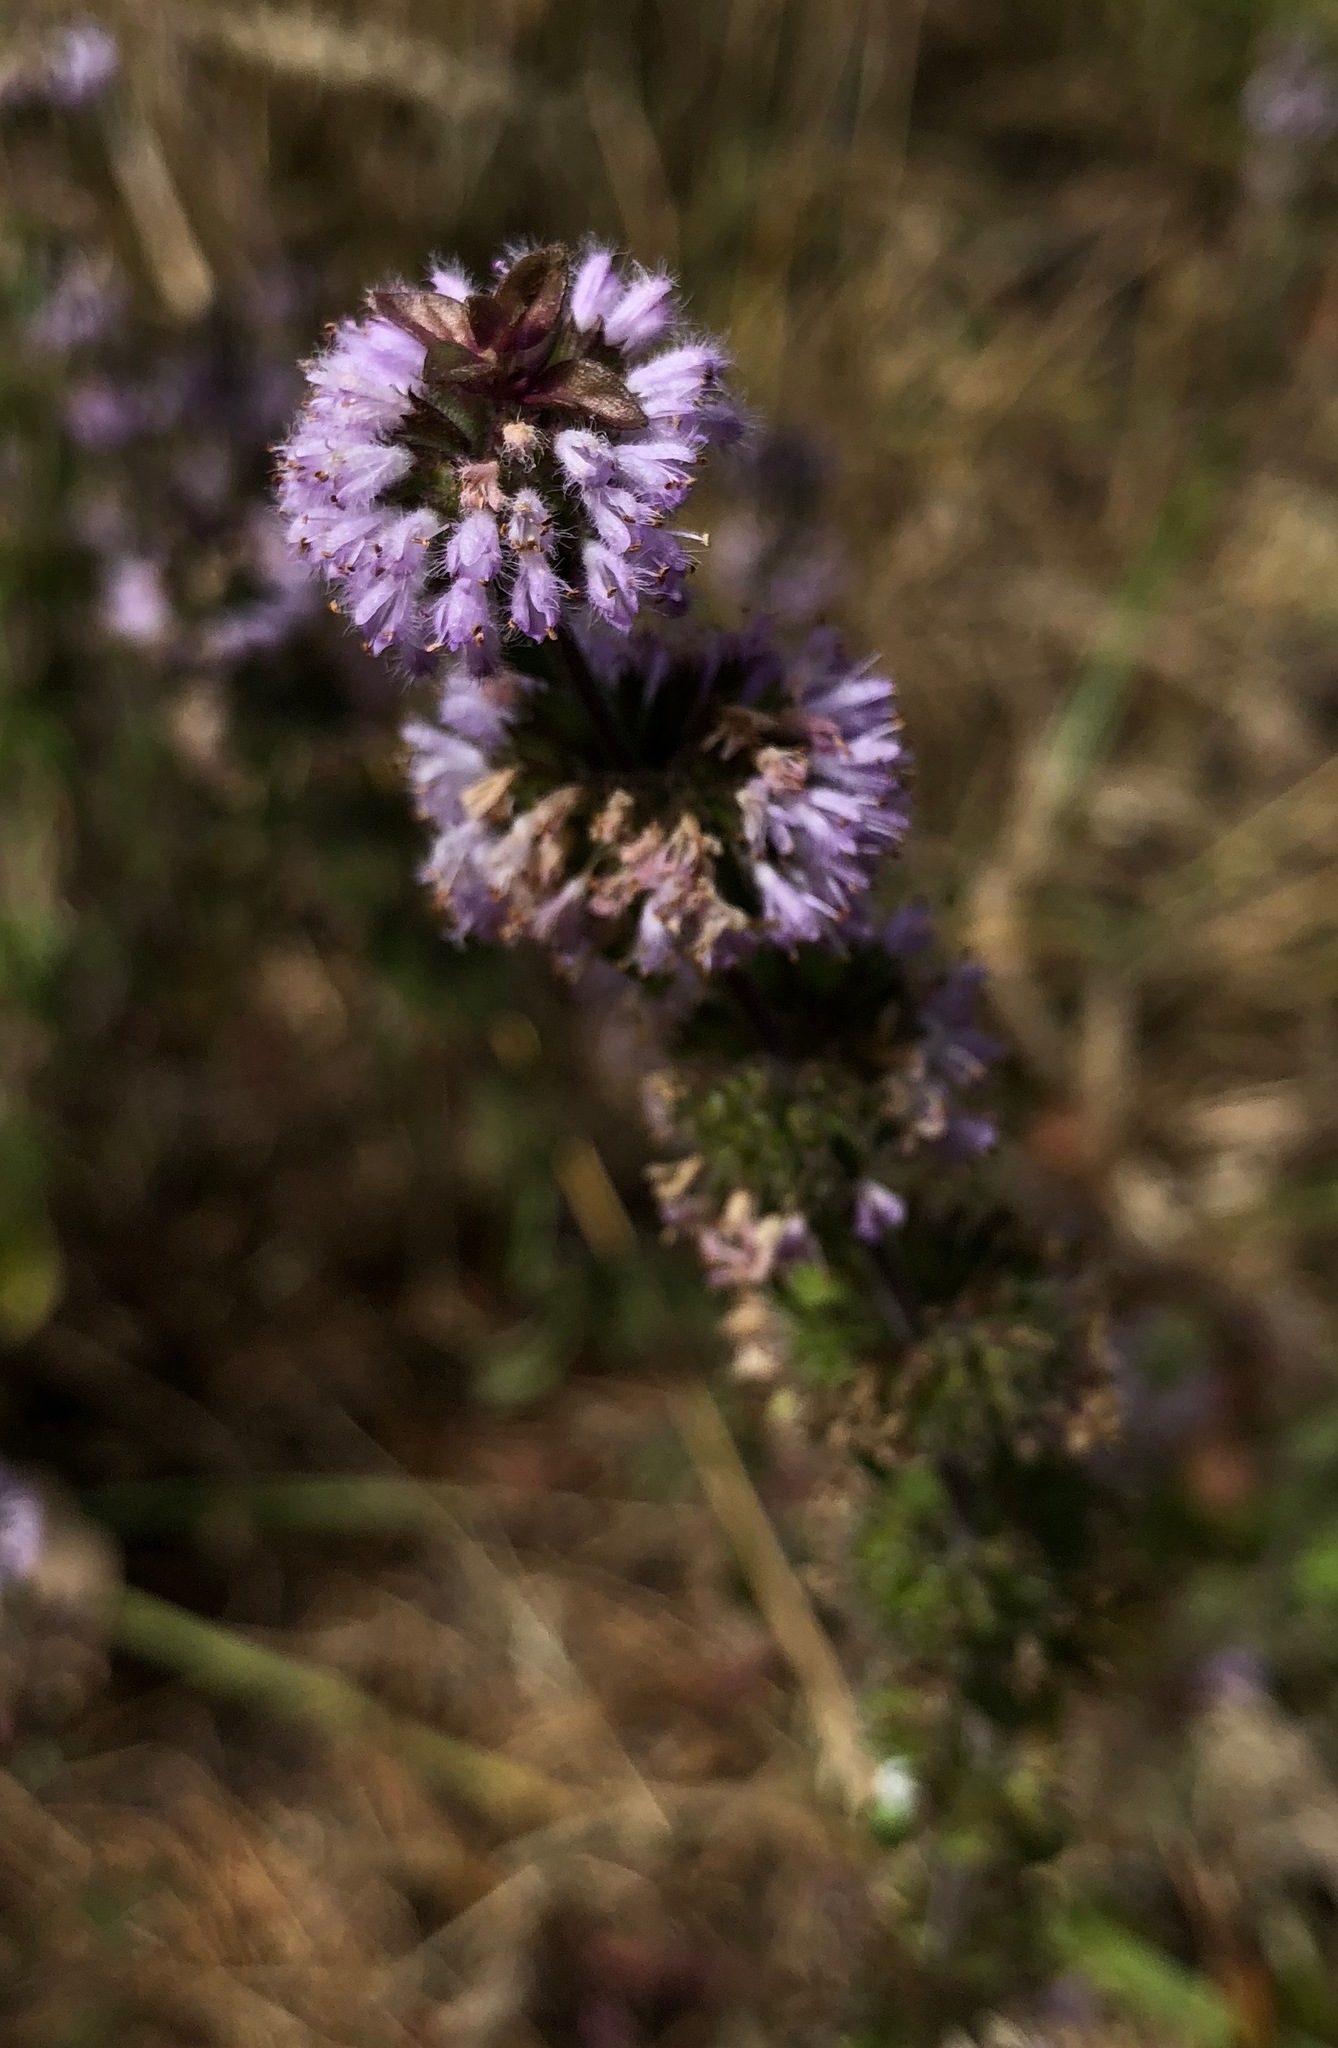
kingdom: Plantae
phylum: Tracheophyta
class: Magnoliopsida
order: Lamiales
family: Lamiaceae
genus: Mentha
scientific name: Mentha pulegium
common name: Pennyroyal
